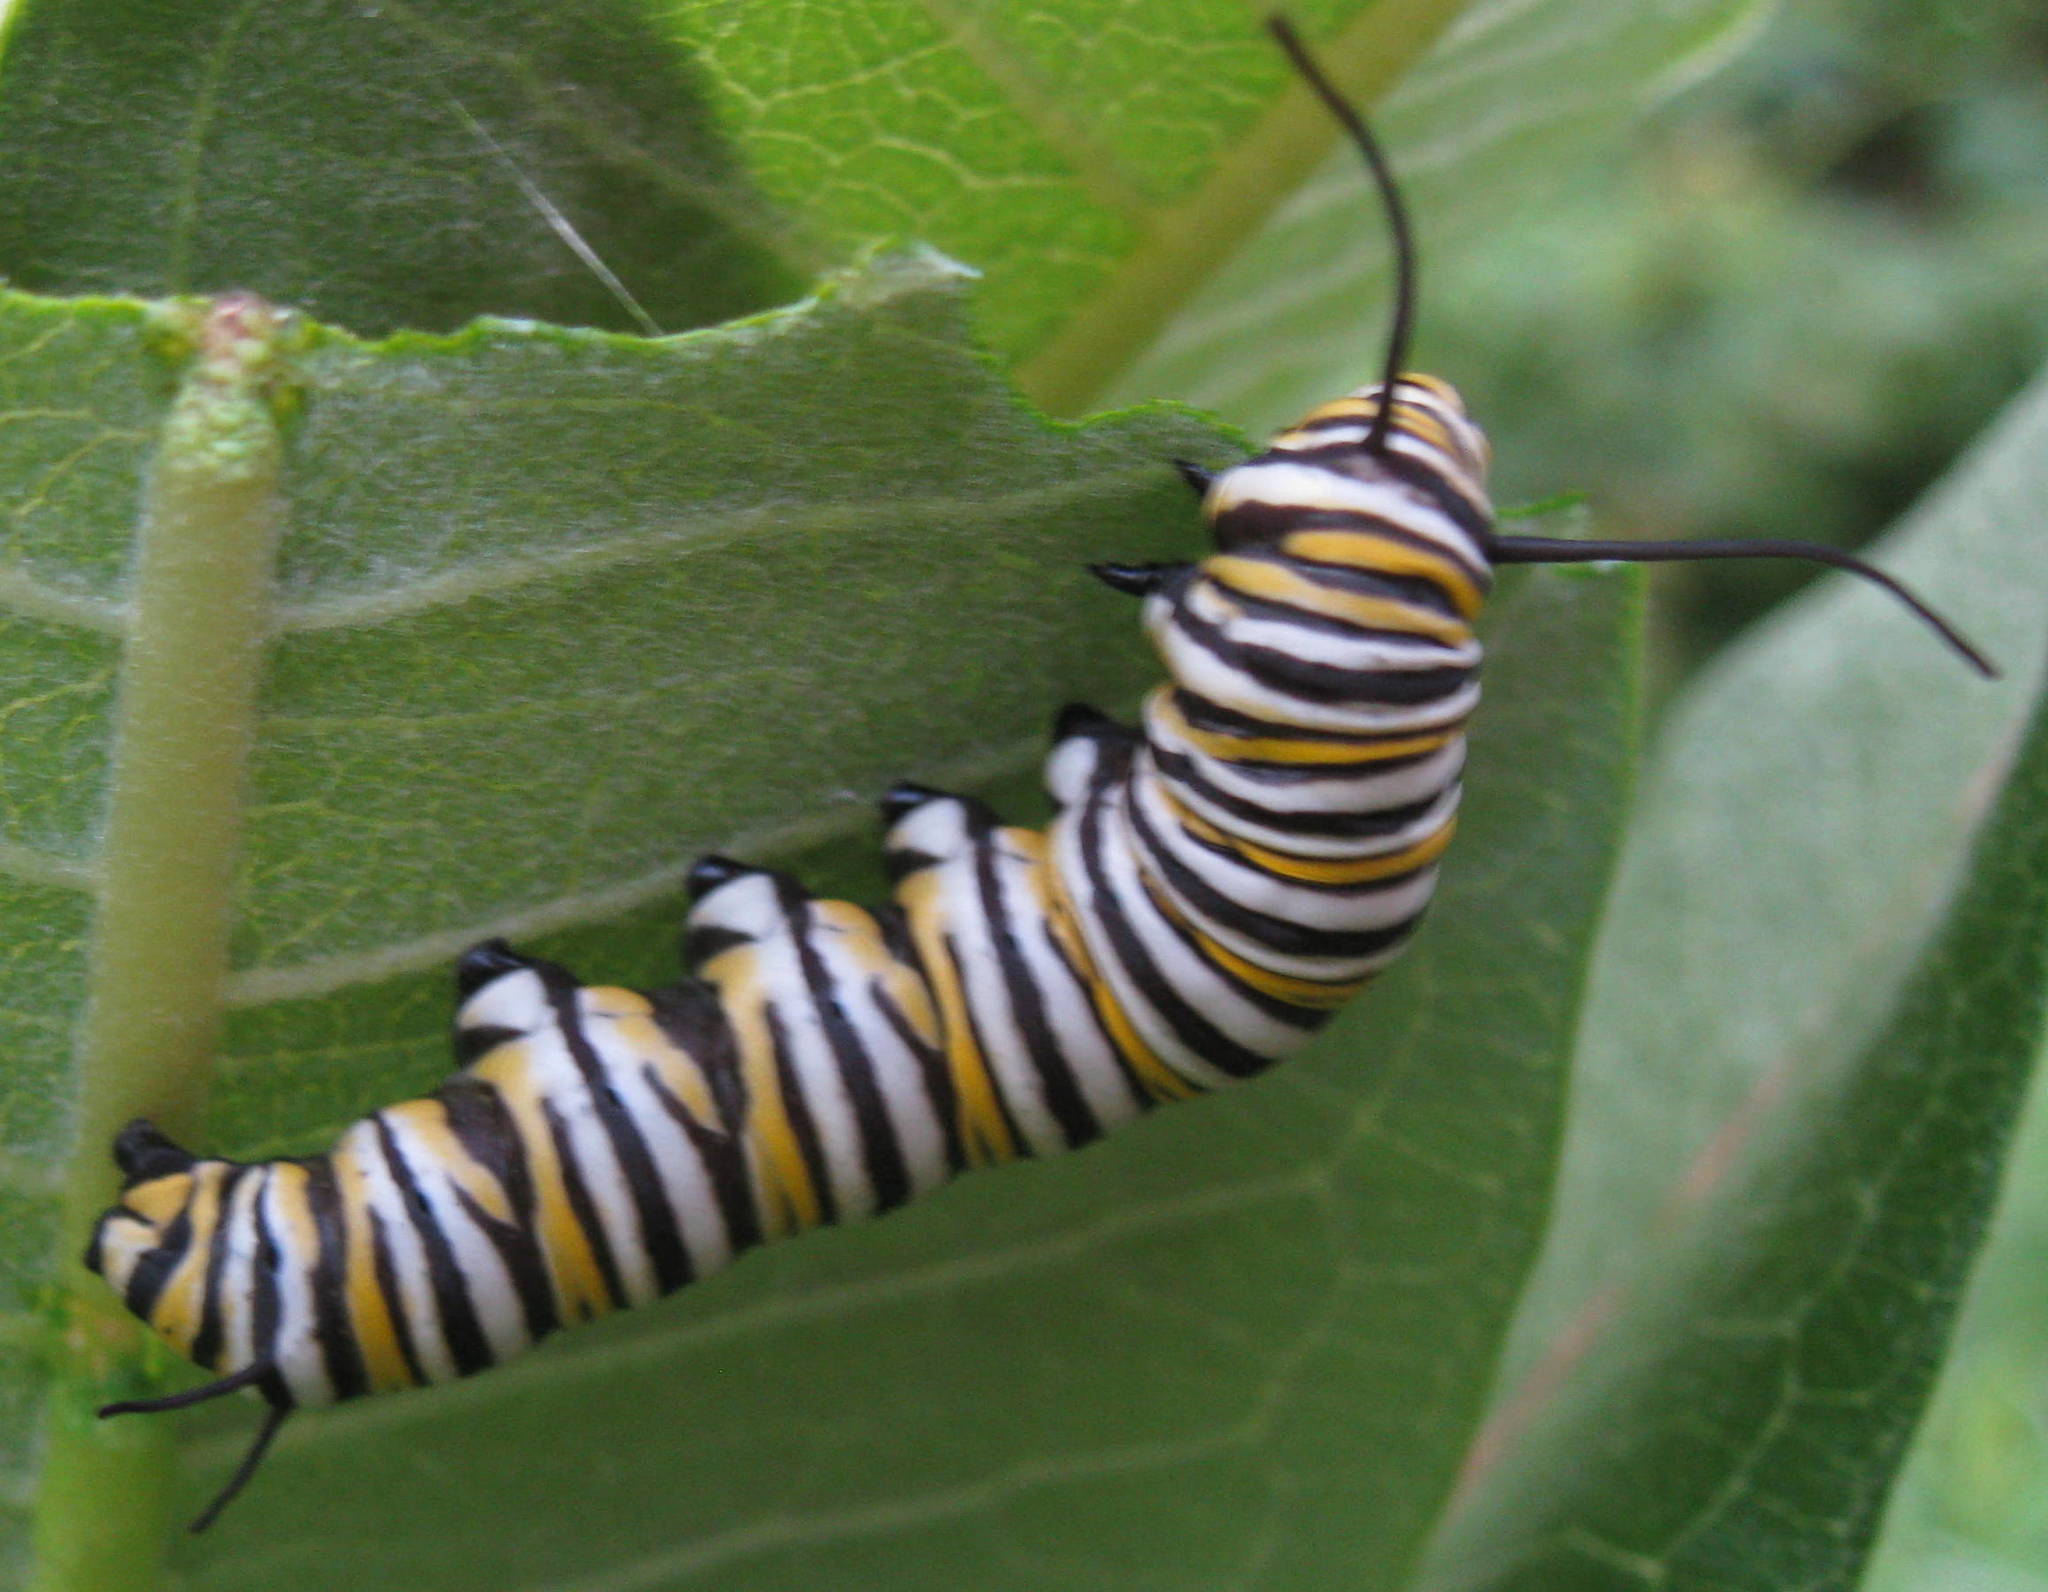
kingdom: Animalia
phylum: Arthropoda
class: Insecta
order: Lepidoptera
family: Nymphalidae
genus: Danaus
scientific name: Danaus plexippus
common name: Monarch
